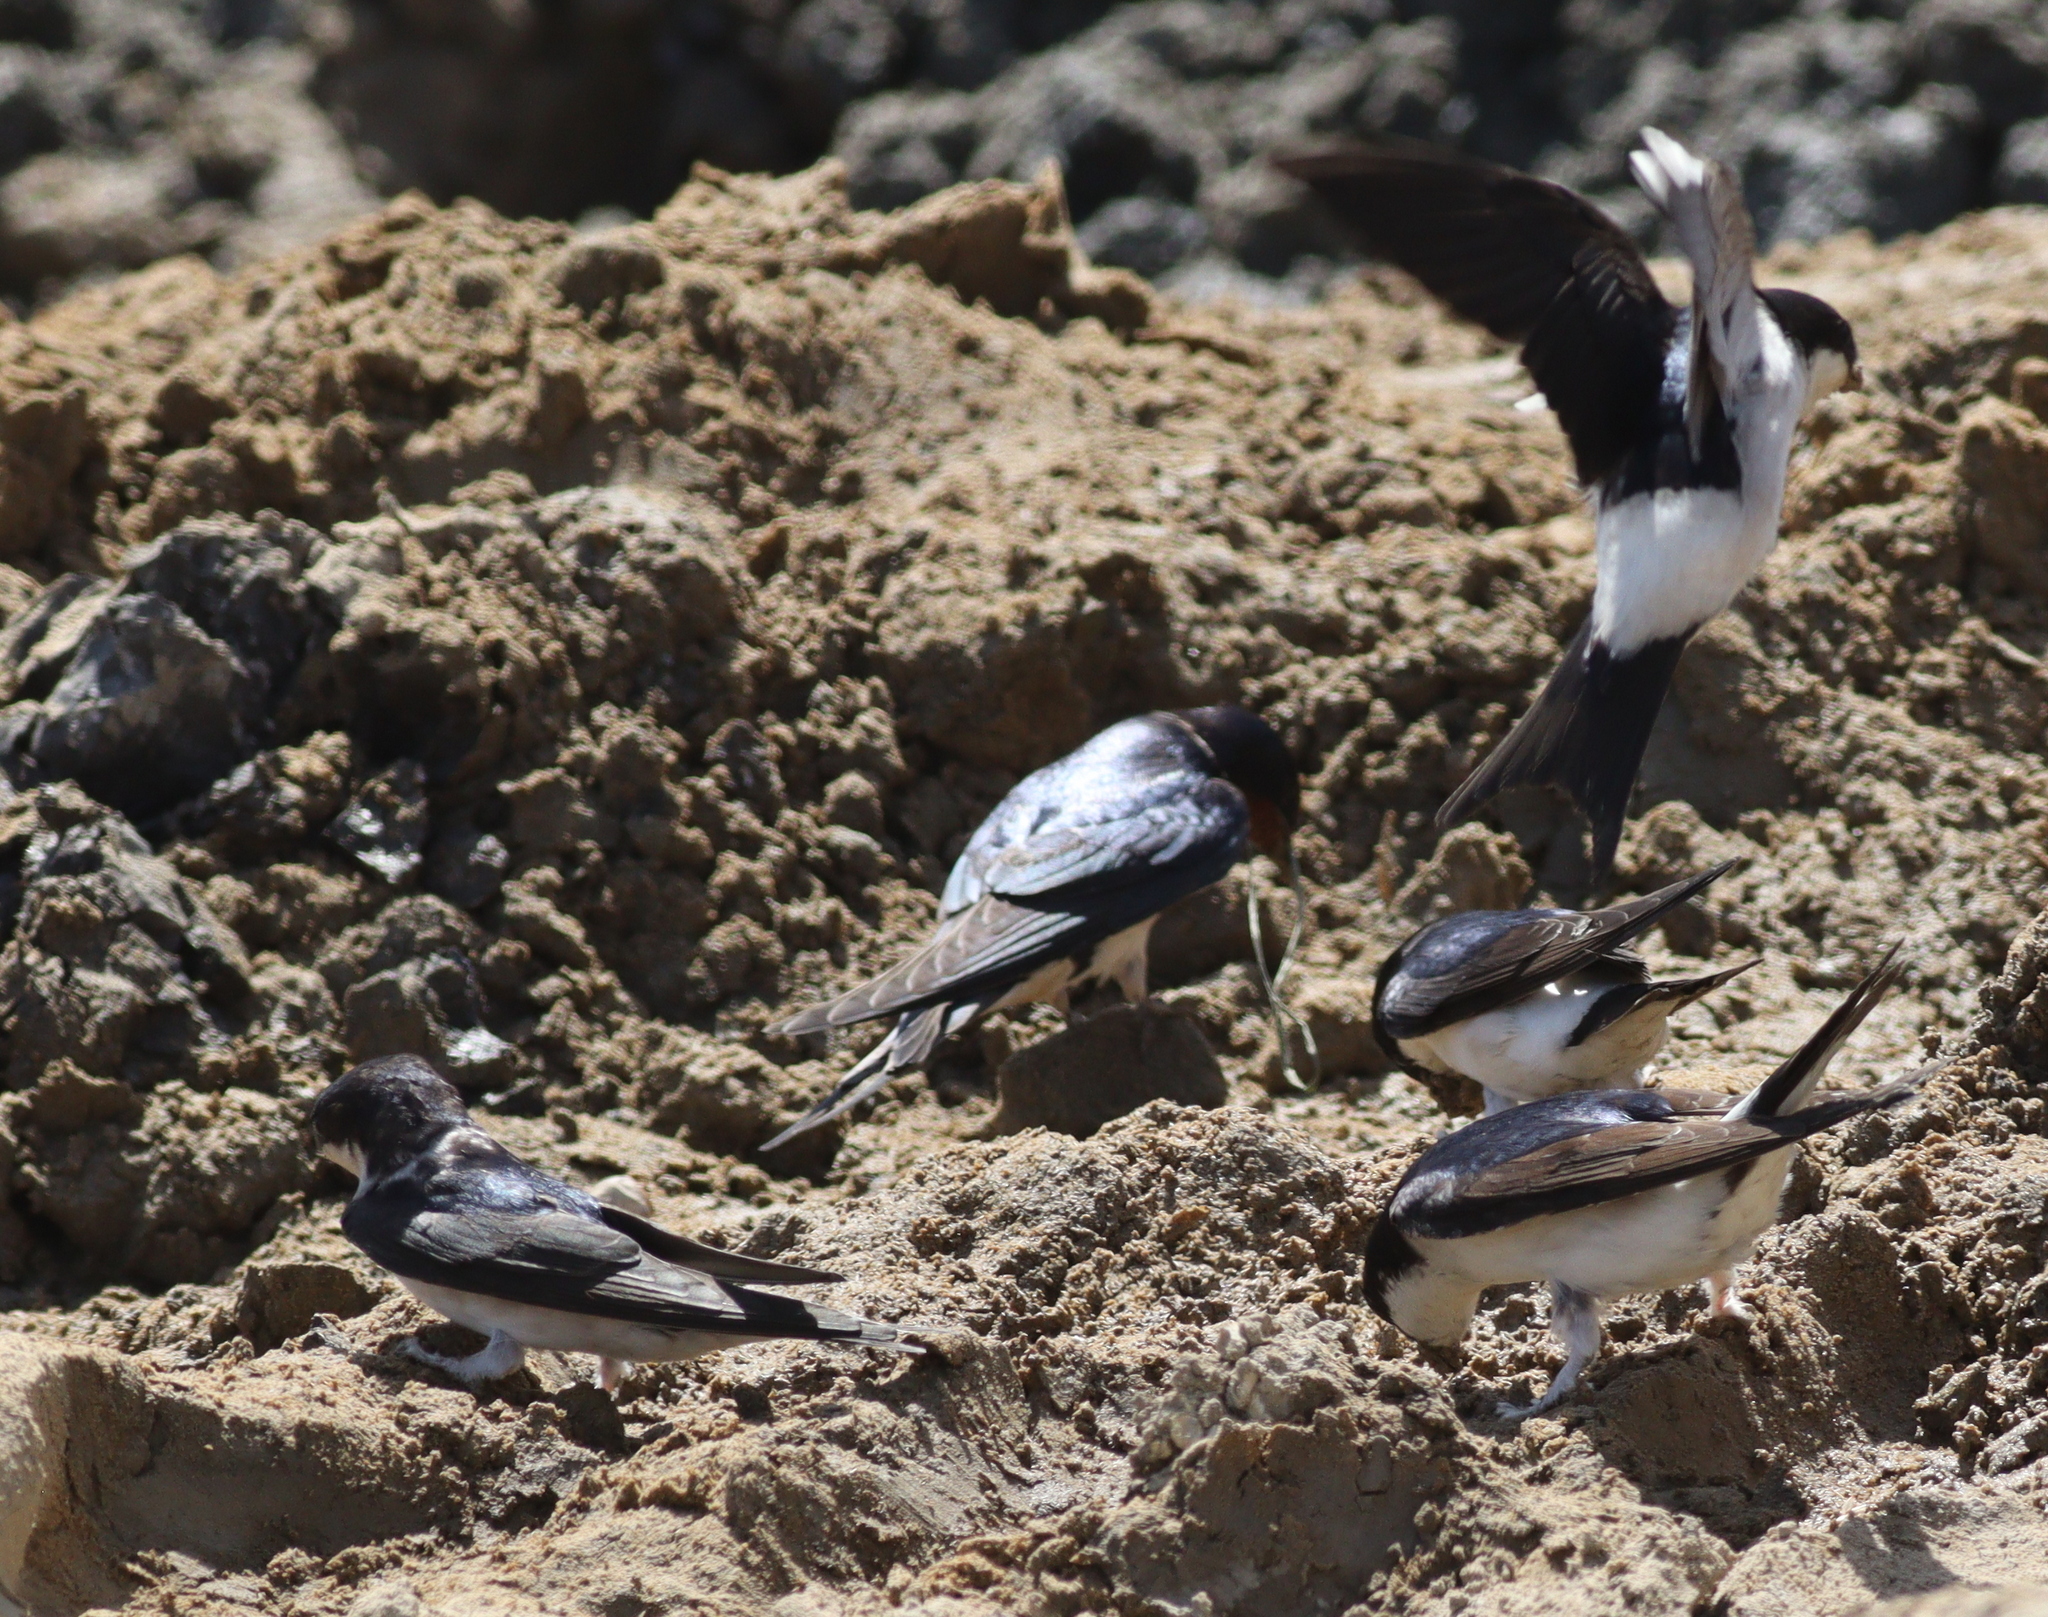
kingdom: Animalia
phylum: Chordata
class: Aves
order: Passeriformes
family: Hirundinidae
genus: Delichon
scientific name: Delichon urbicum
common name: Common house martin
